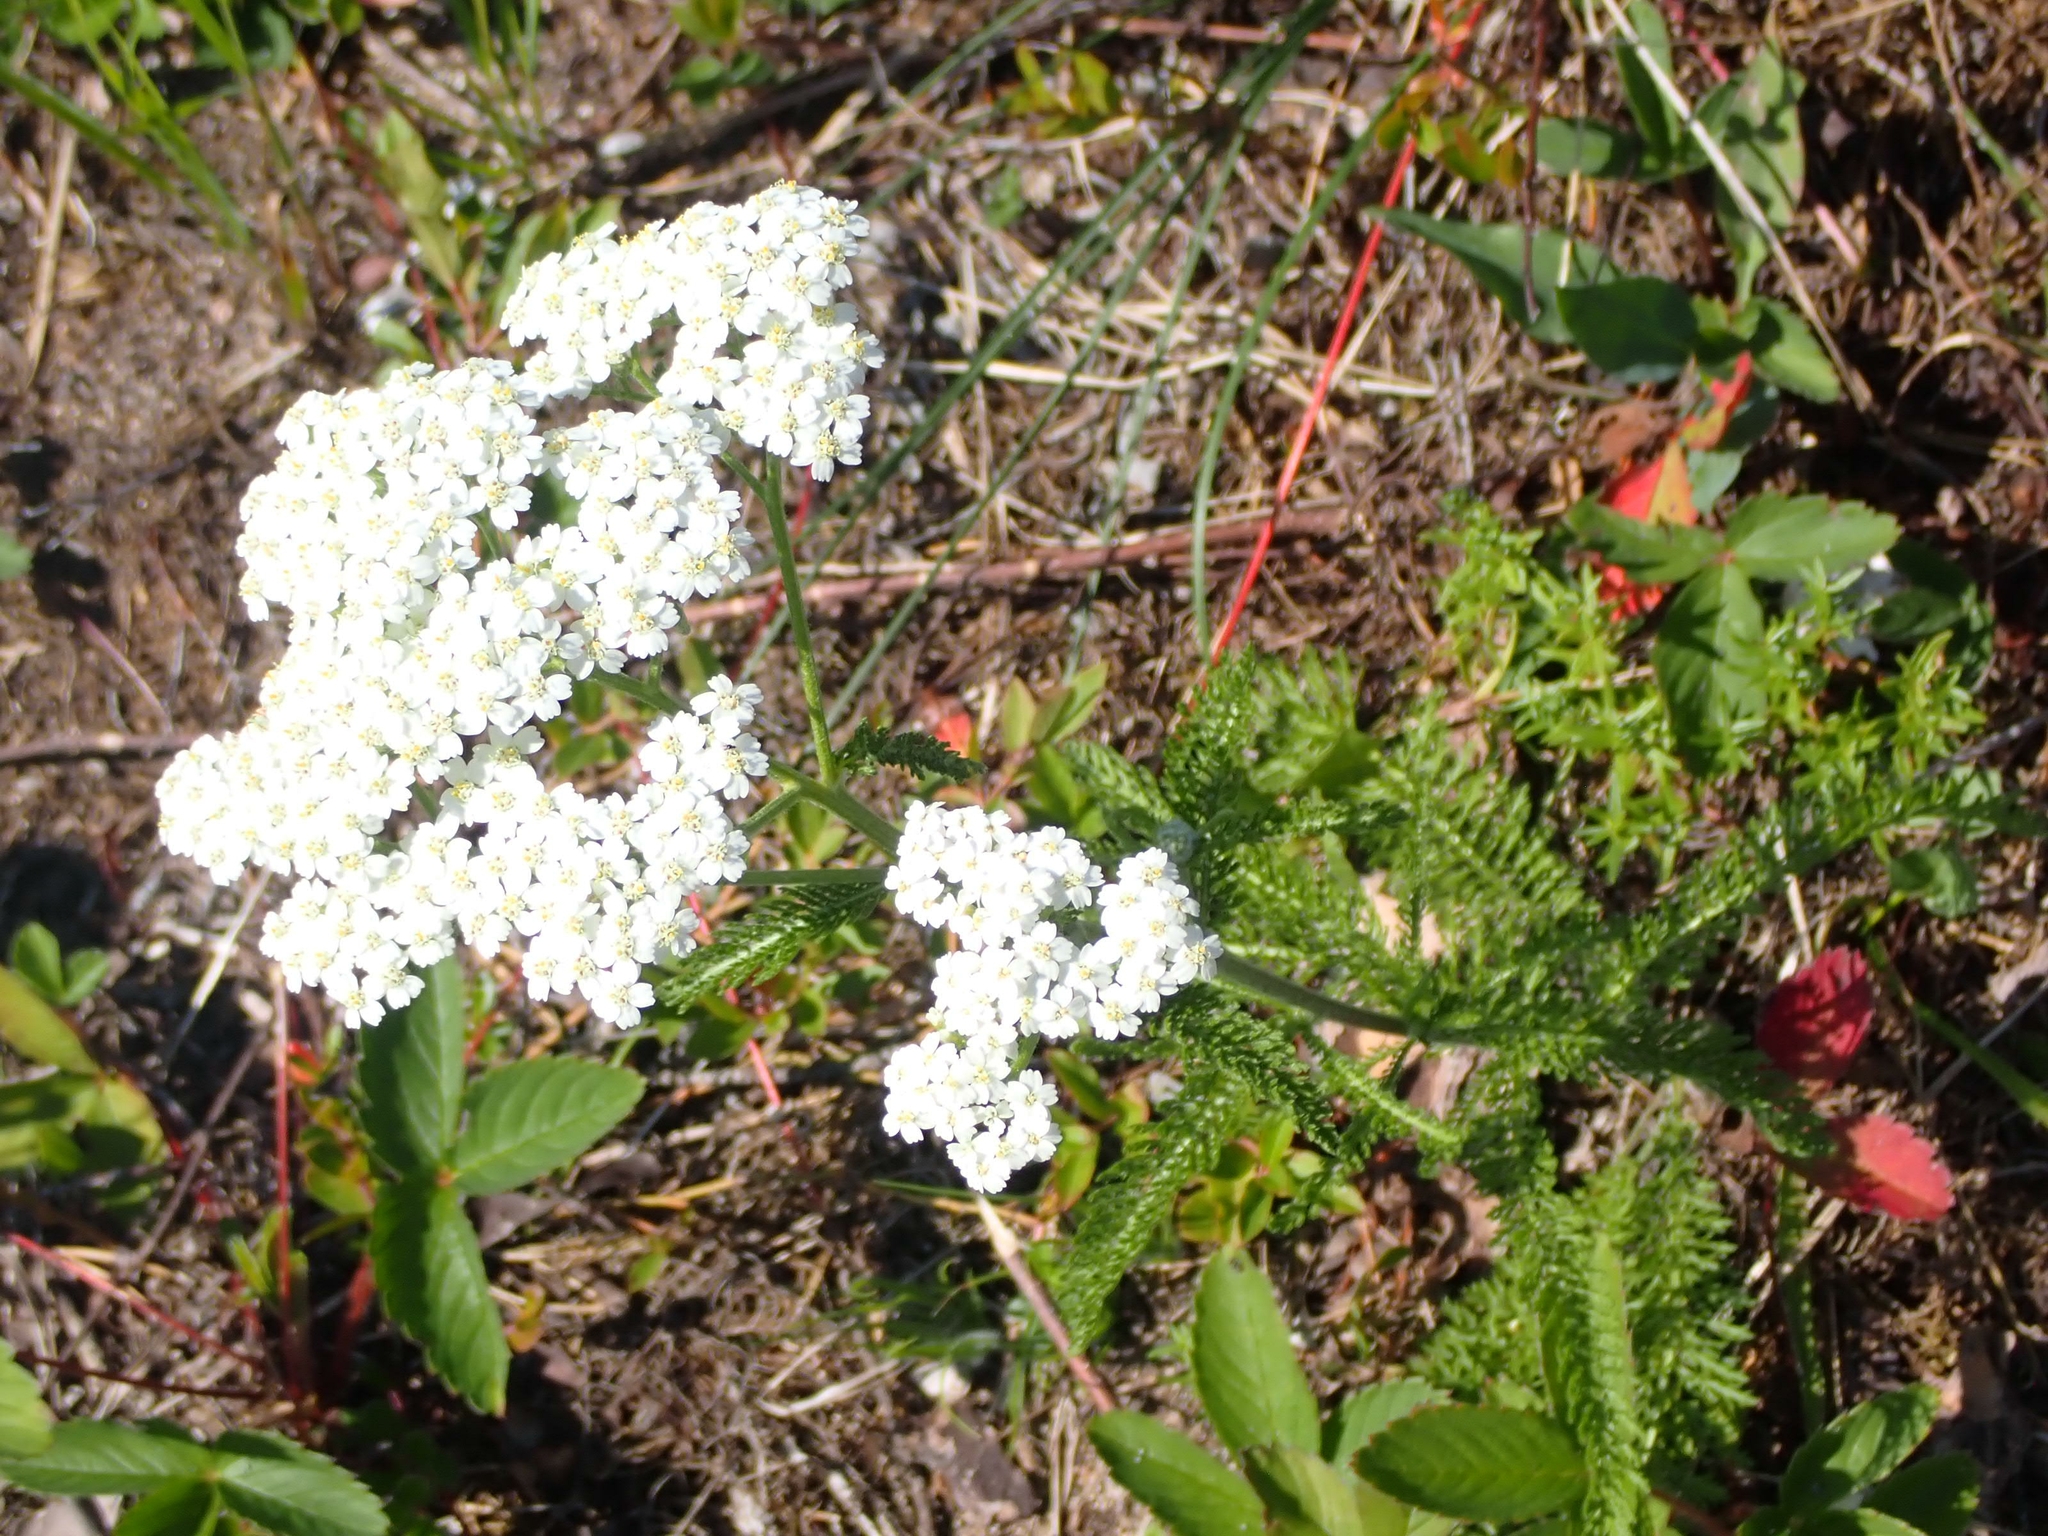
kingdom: Plantae
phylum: Tracheophyta
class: Magnoliopsida
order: Asterales
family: Asteraceae
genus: Achillea
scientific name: Achillea millefolium
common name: Yarrow
